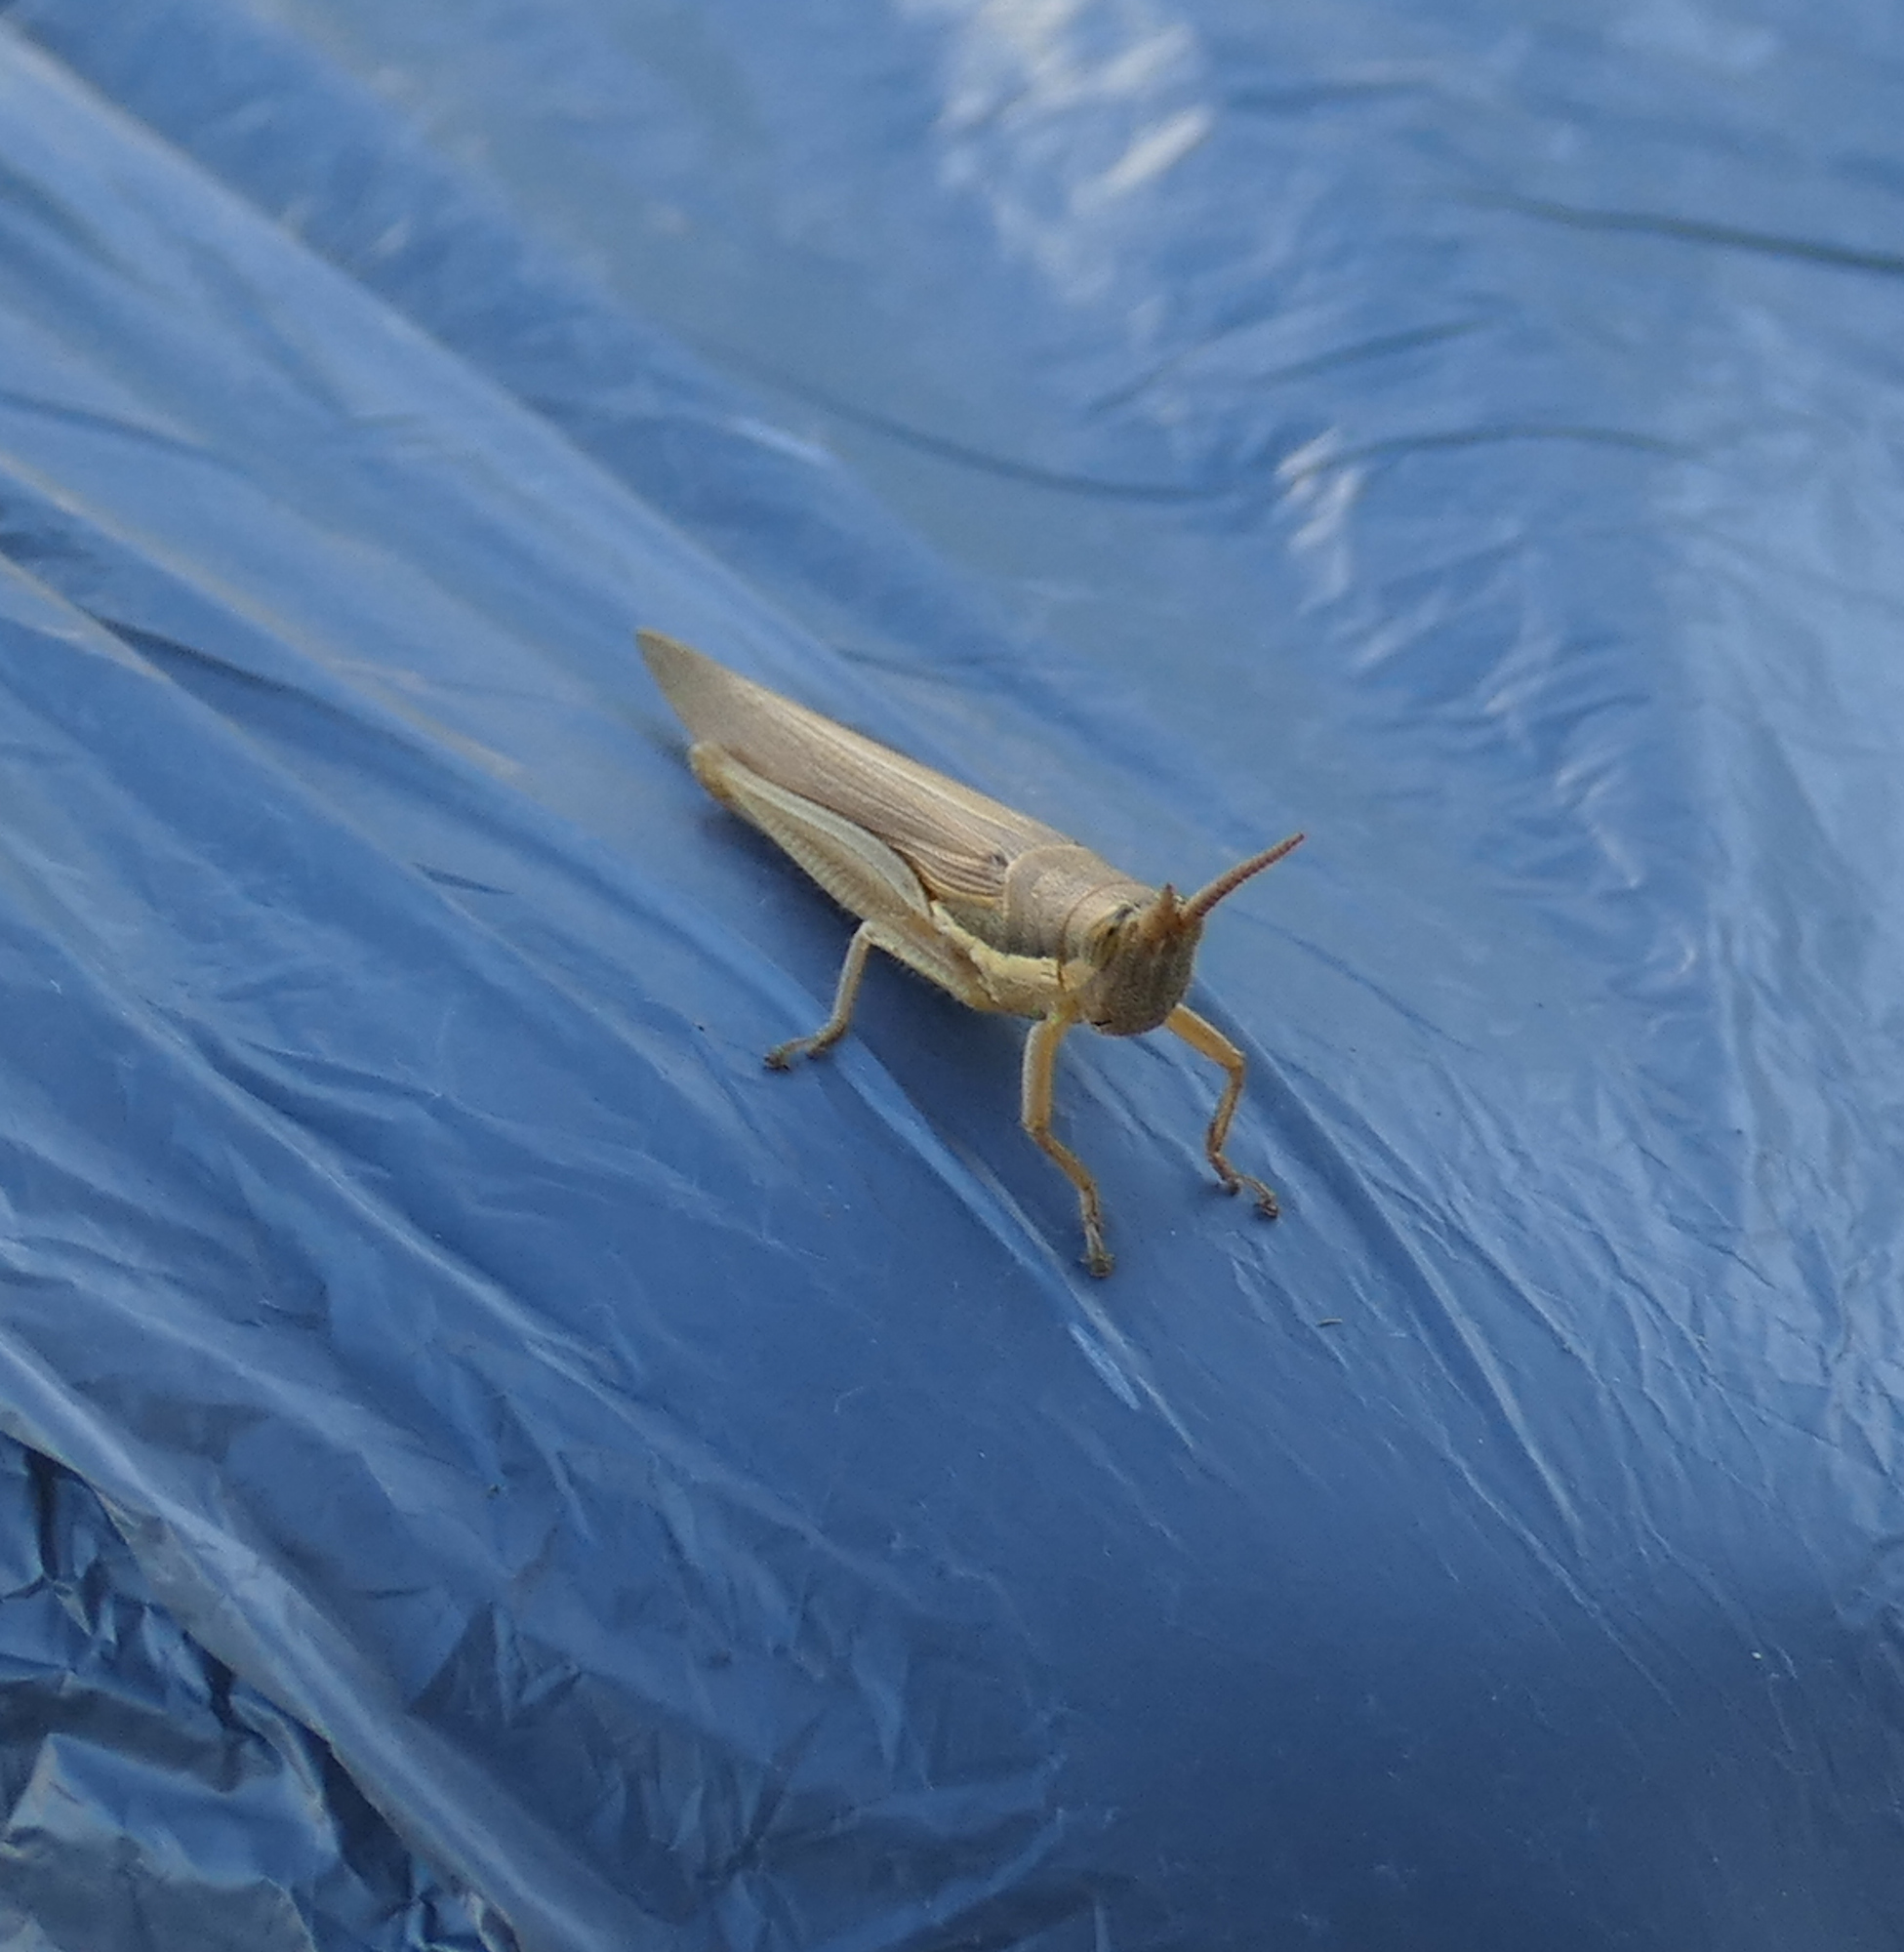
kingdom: Animalia
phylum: Arthropoda
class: Insecta
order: Orthoptera
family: Acrididae
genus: Leptysma
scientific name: Leptysma marginicollis
